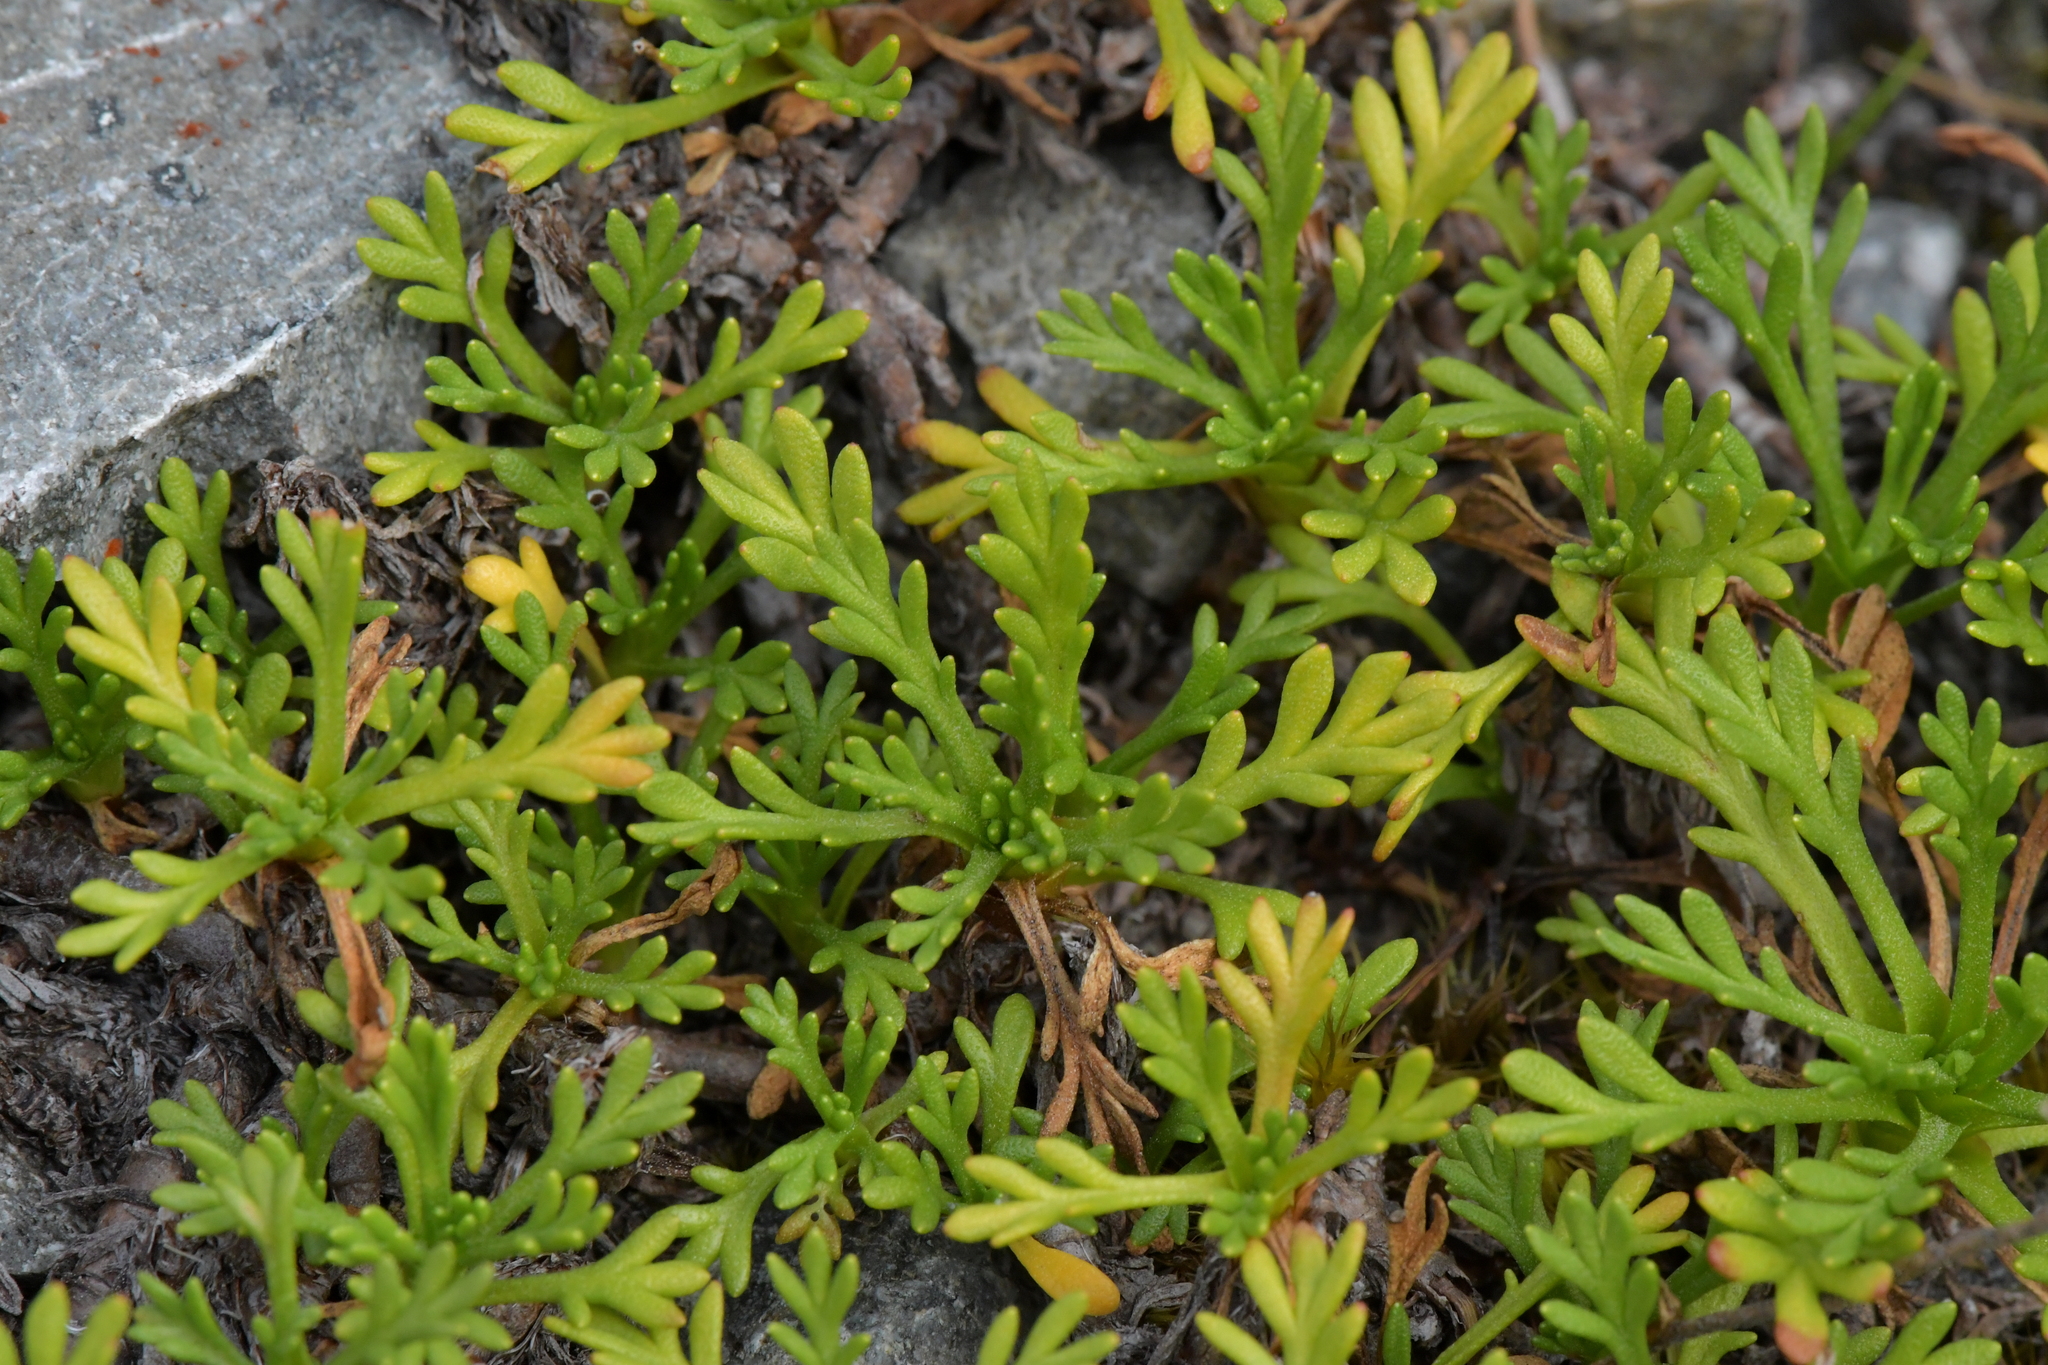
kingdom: Plantae
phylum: Tracheophyta
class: Magnoliopsida
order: Asterales
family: Asteraceae
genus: Leptinella
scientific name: Leptinella pyrethrifolia
